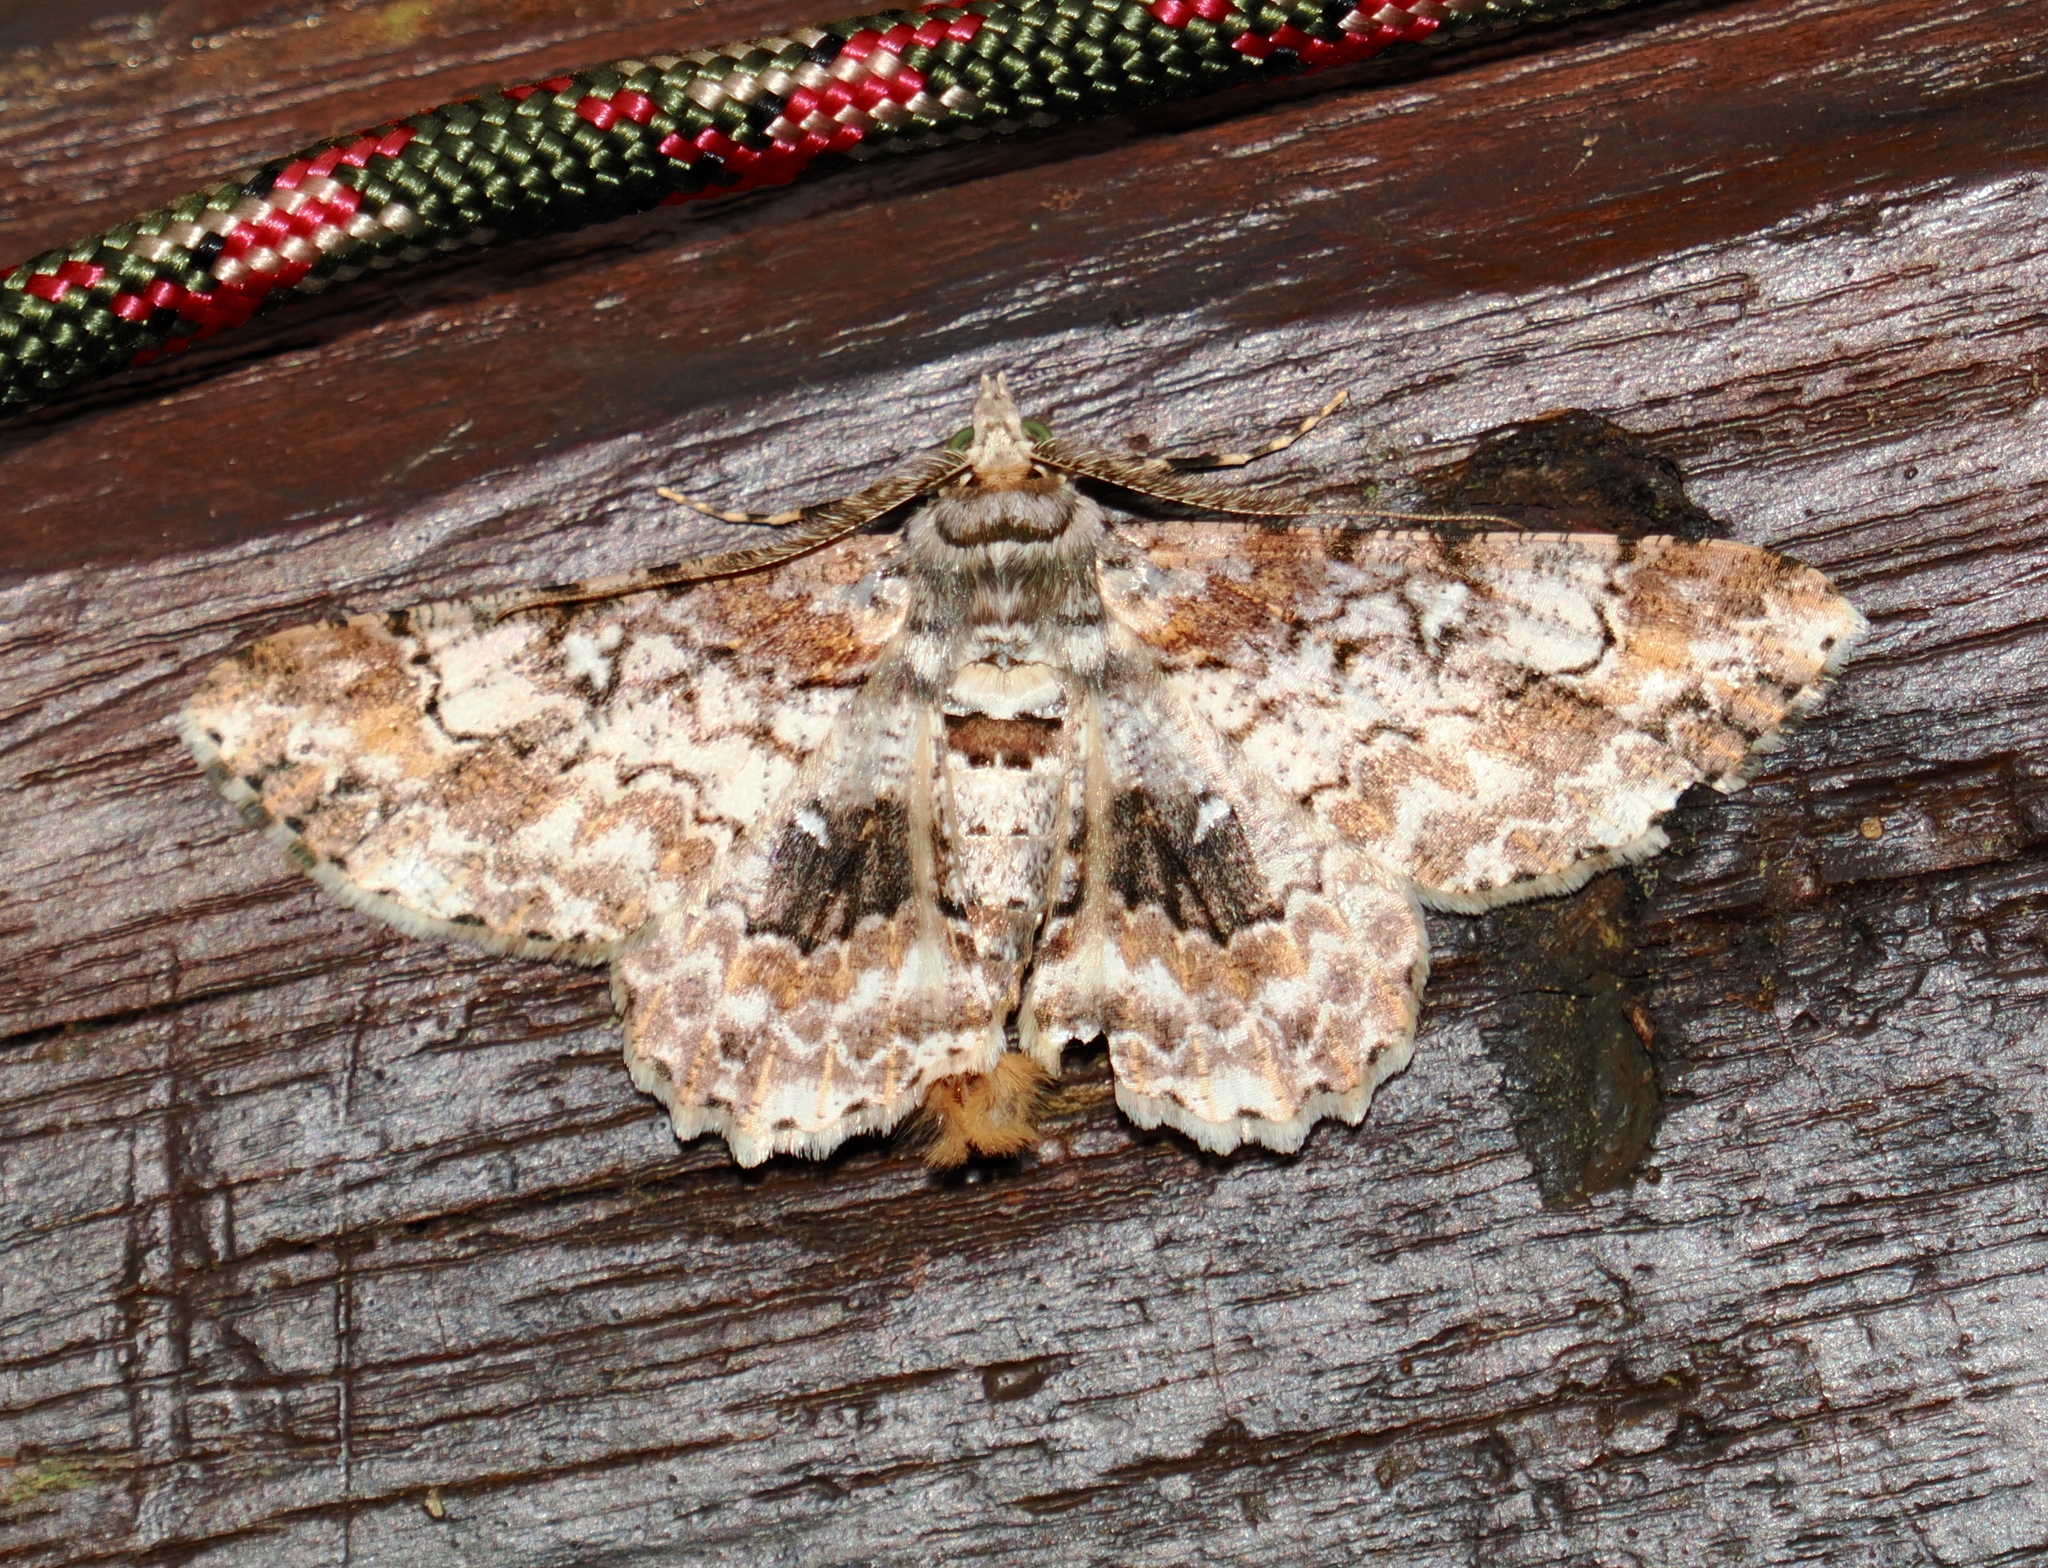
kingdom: Animalia
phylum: Arthropoda
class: Insecta
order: Lepidoptera
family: Geometridae
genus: Cleora
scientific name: Cleora alienaria
